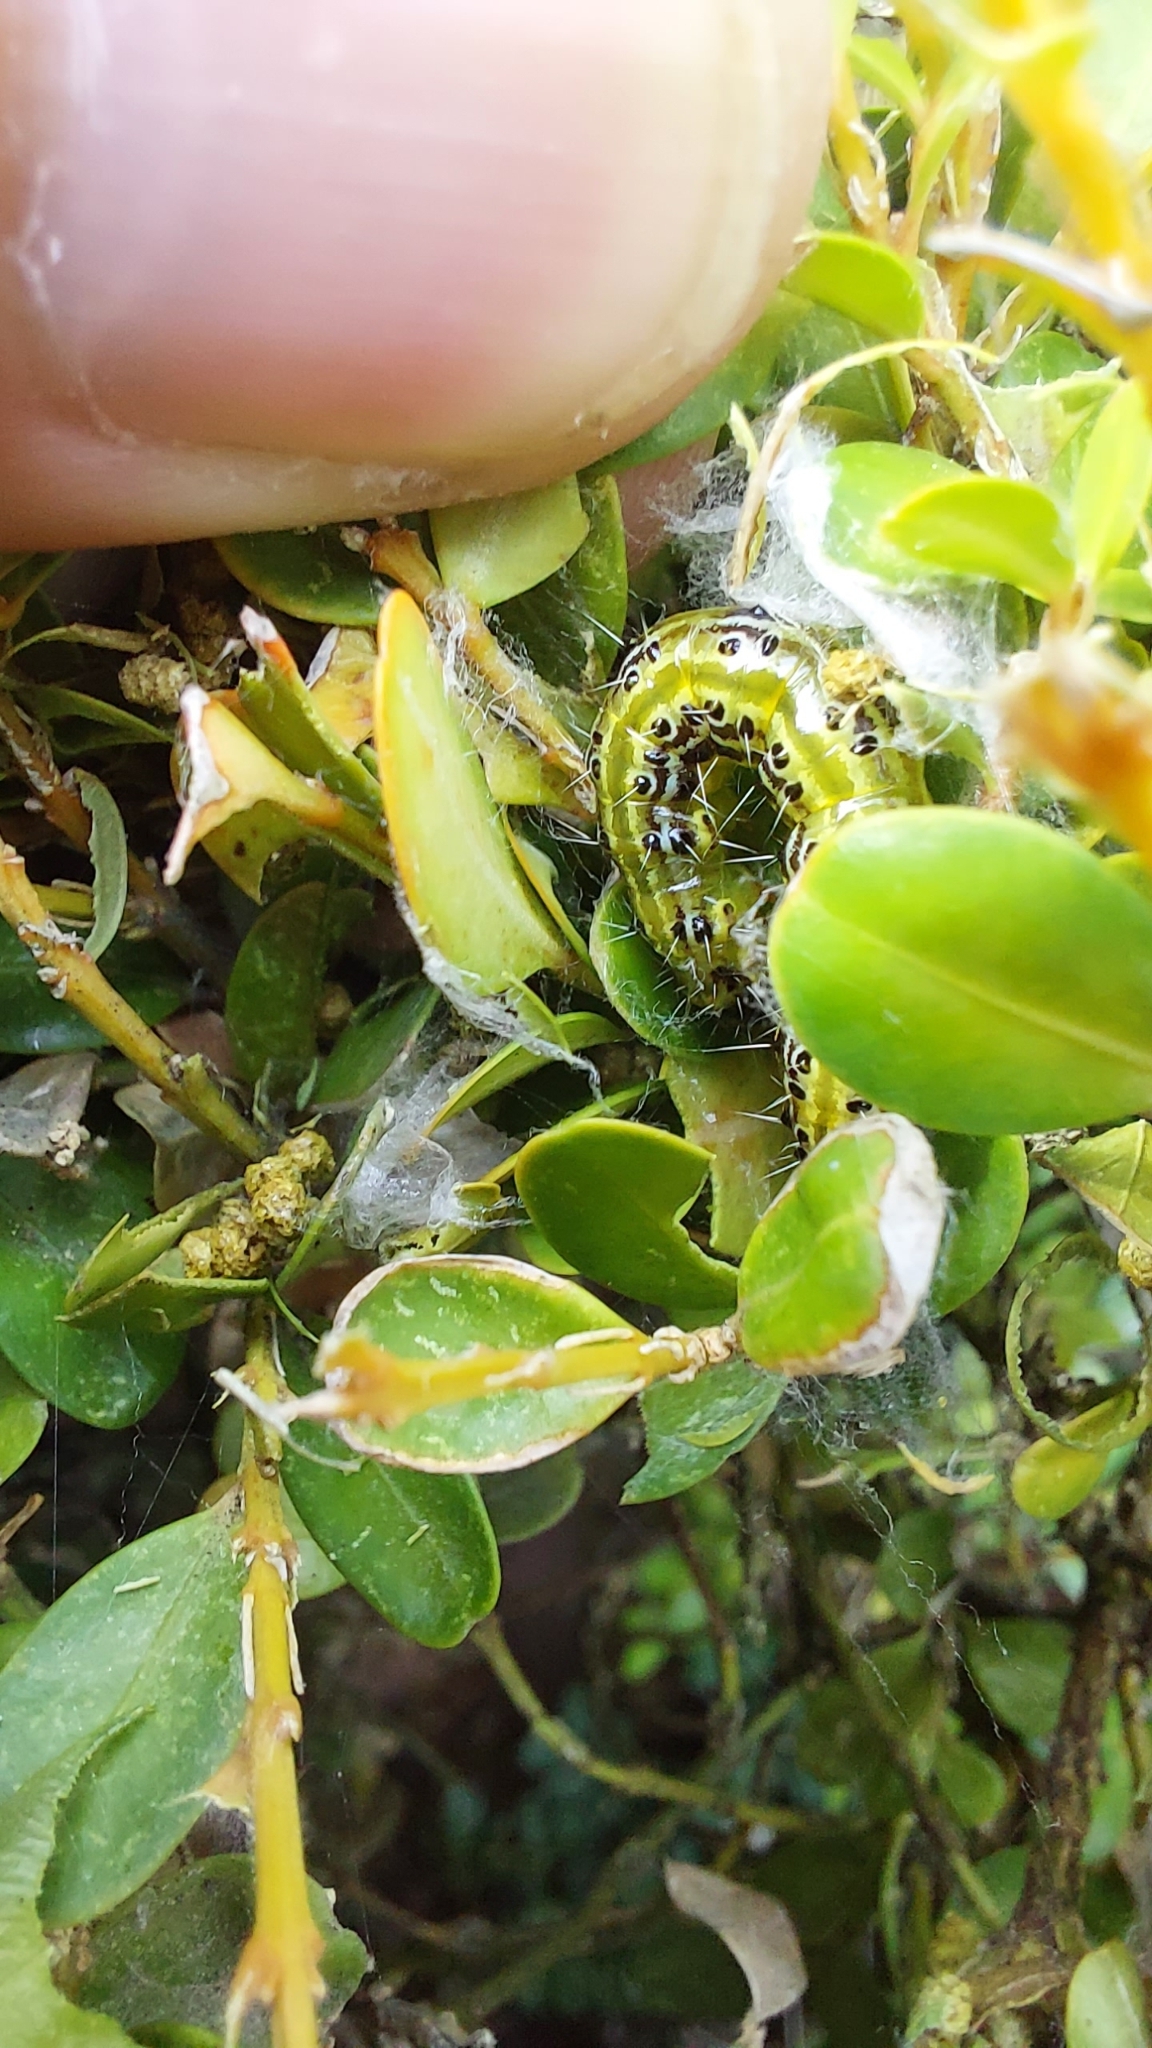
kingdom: Animalia
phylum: Arthropoda
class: Insecta
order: Lepidoptera
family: Crambidae
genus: Cydalima
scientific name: Cydalima perspectalis
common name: Box tree moth
